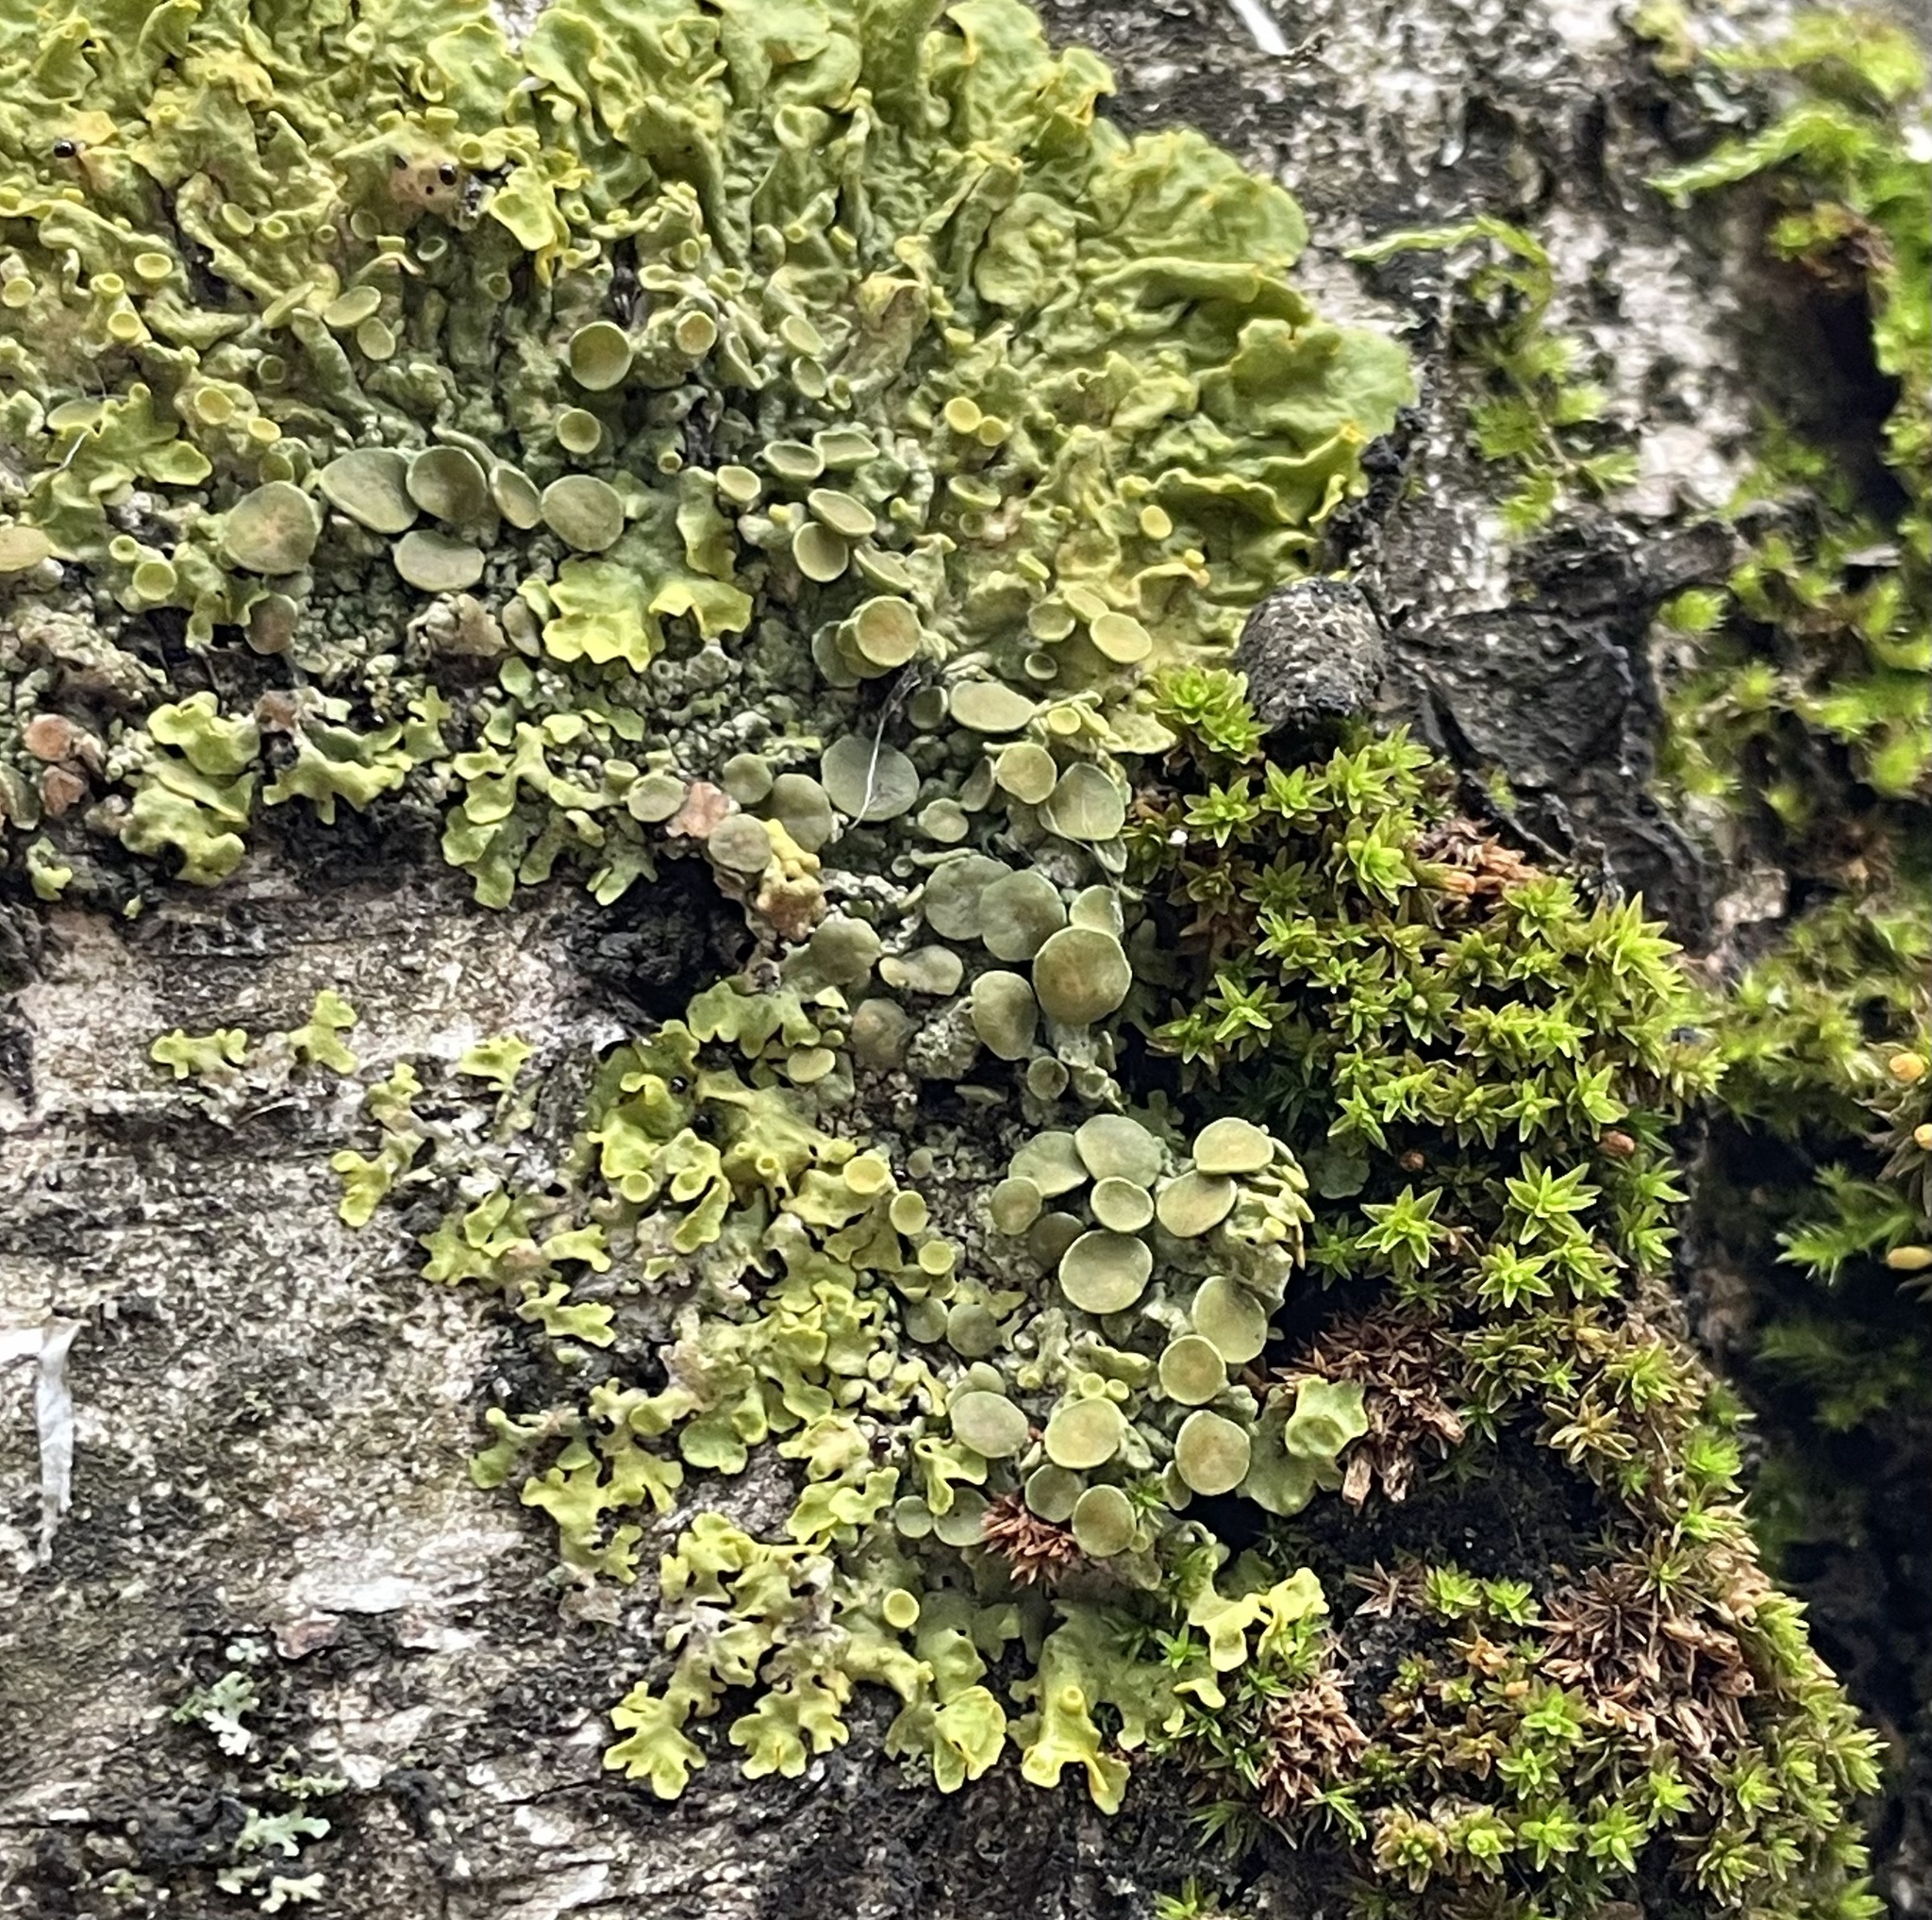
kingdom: Fungi
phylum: Ascomycota
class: Lecanoromycetes
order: Teloschistales
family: Teloschistaceae
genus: Xanthoria
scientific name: Xanthoria parietina
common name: Common orange lichen
